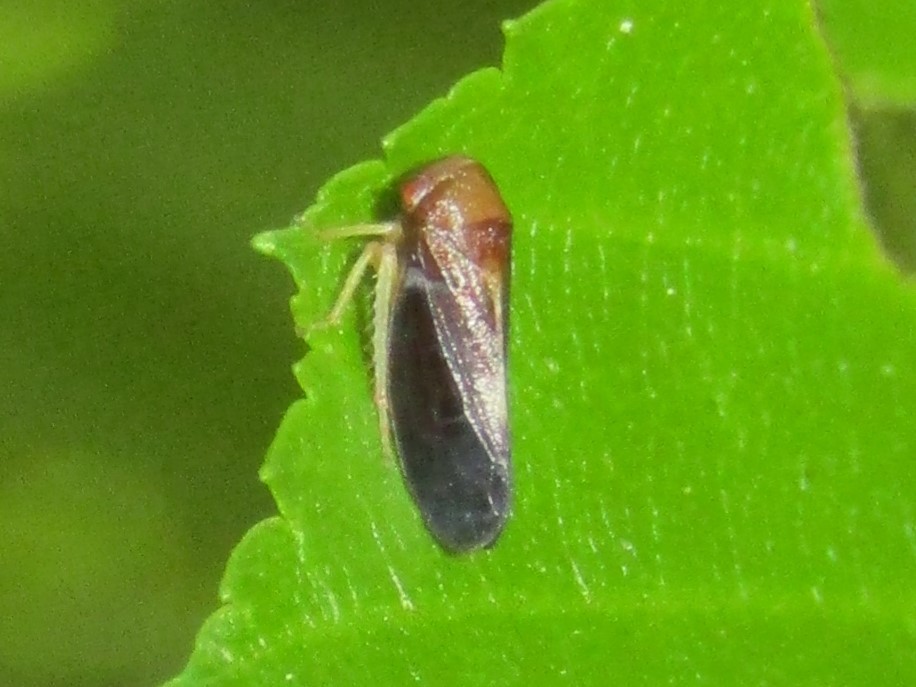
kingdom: Animalia
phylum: Arthropoda
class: Insecta
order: Hemiptera
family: Cicadellidae
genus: Oncopsis
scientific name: Oncopsis nigrinasi
